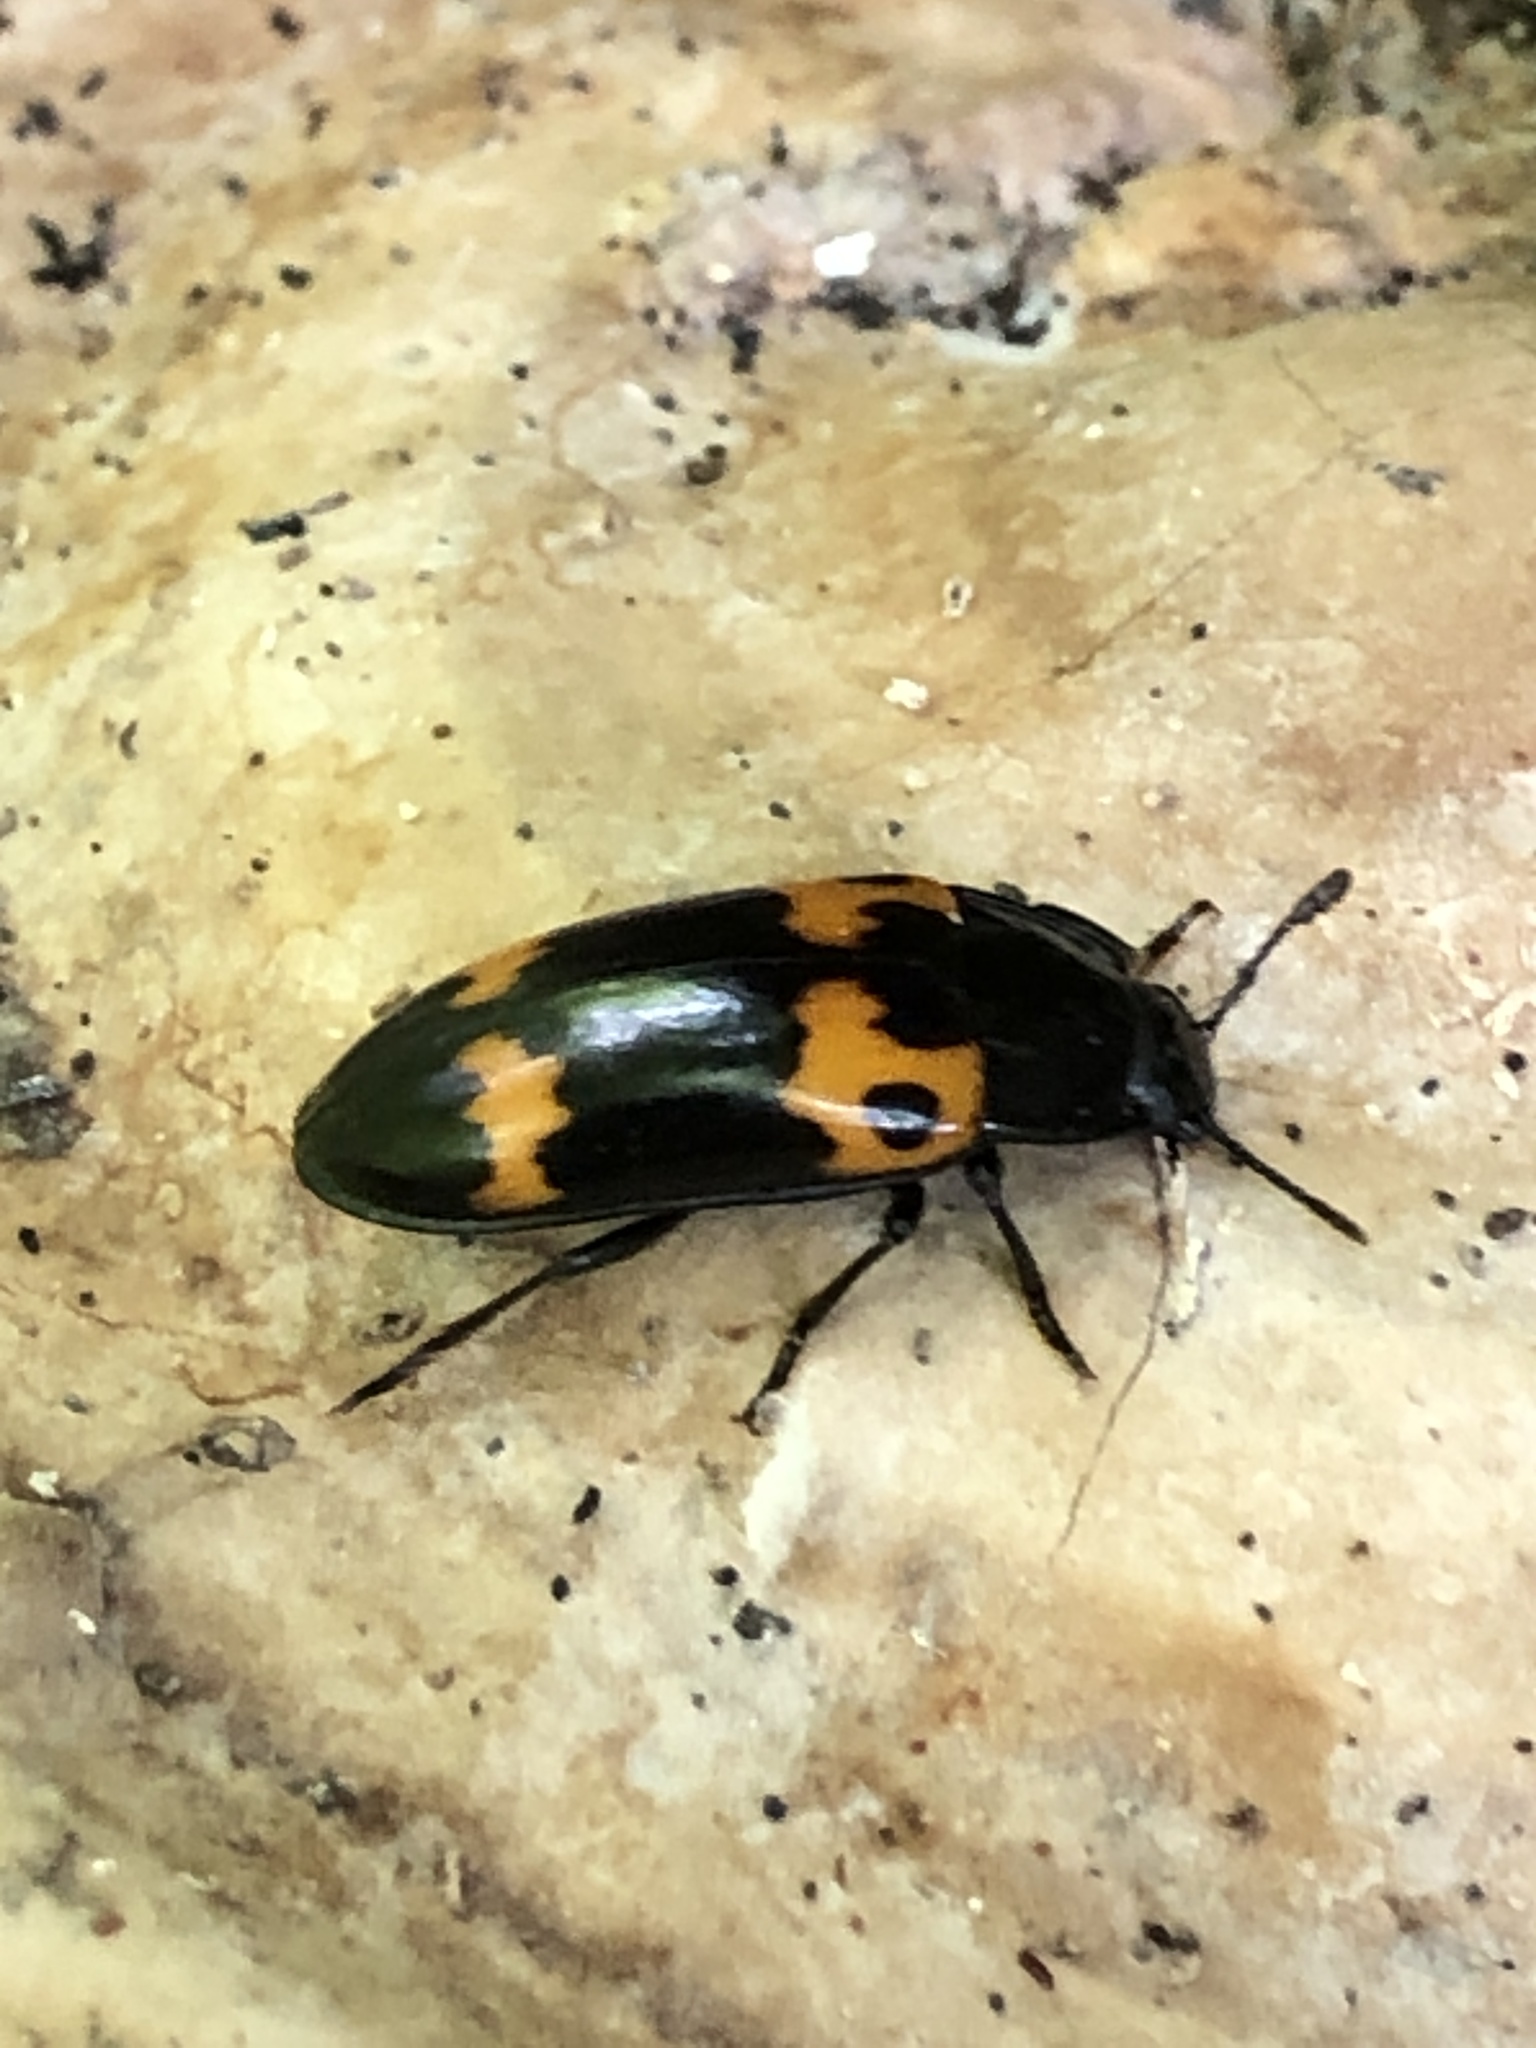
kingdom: Animalia
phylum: Arthropoda
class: Insecta
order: Coleoptera
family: Erotylidae
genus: Megalodacne
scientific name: Megalodacne fasciata
